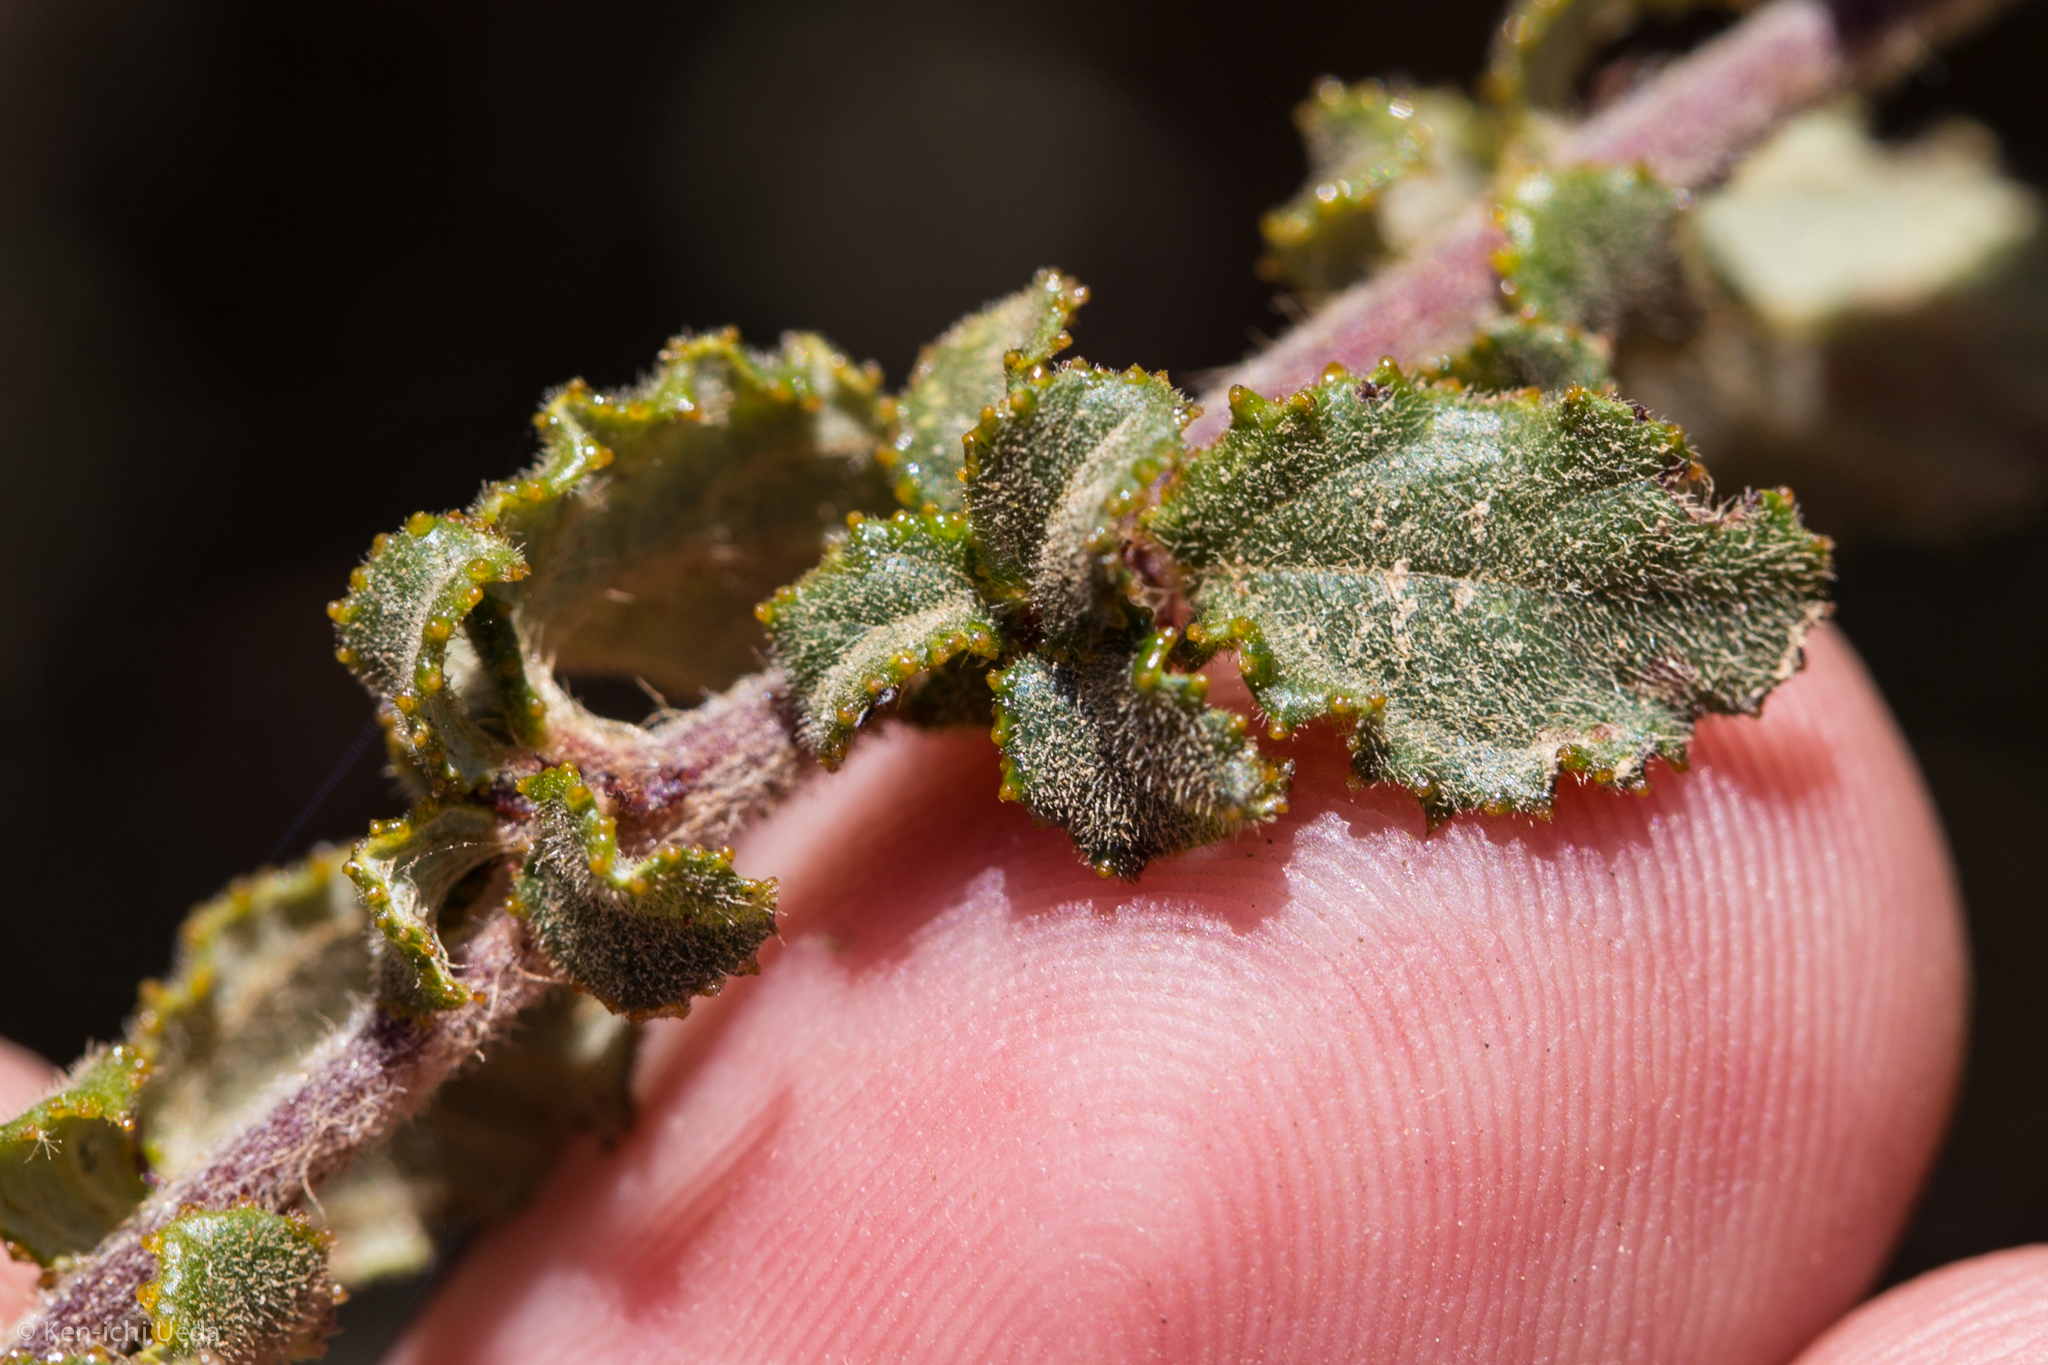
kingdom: Plantae
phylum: Tracheophyta
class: Magnoliopsida
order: Rosales
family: Rhamnaceae
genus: Ceanothus
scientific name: Ceanothus foliosus
